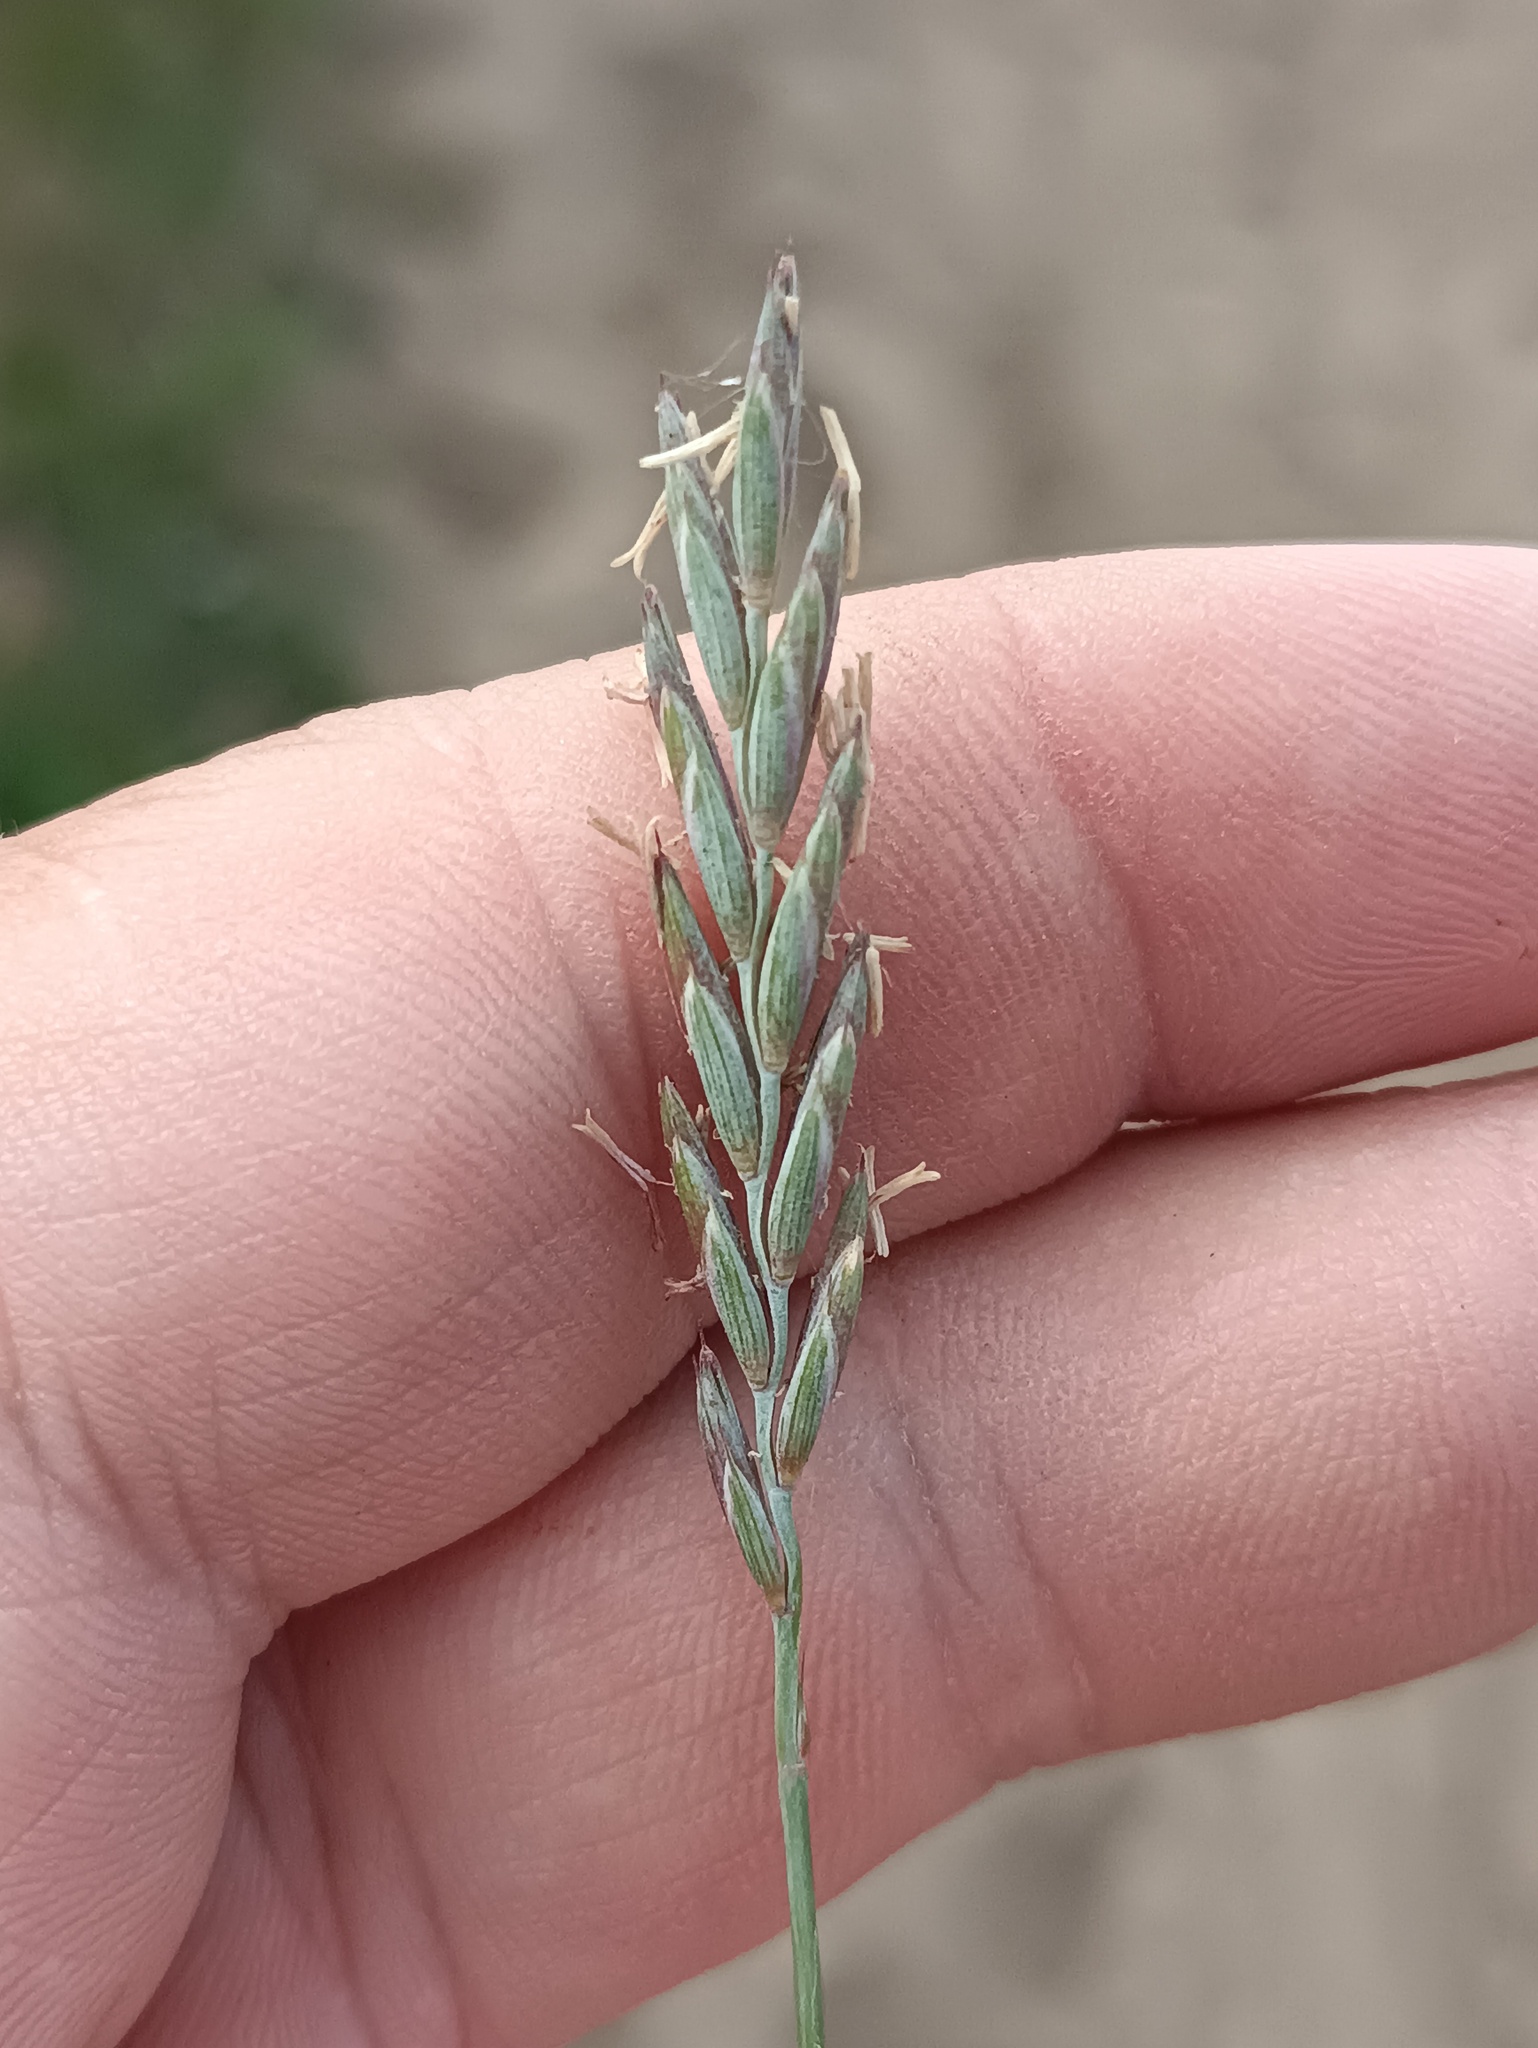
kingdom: Plantae
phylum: Tracheophyta
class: Liliopsida
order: Poales
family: Poaceae
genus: Elymus
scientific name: Elymus repens
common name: Quackgrass
